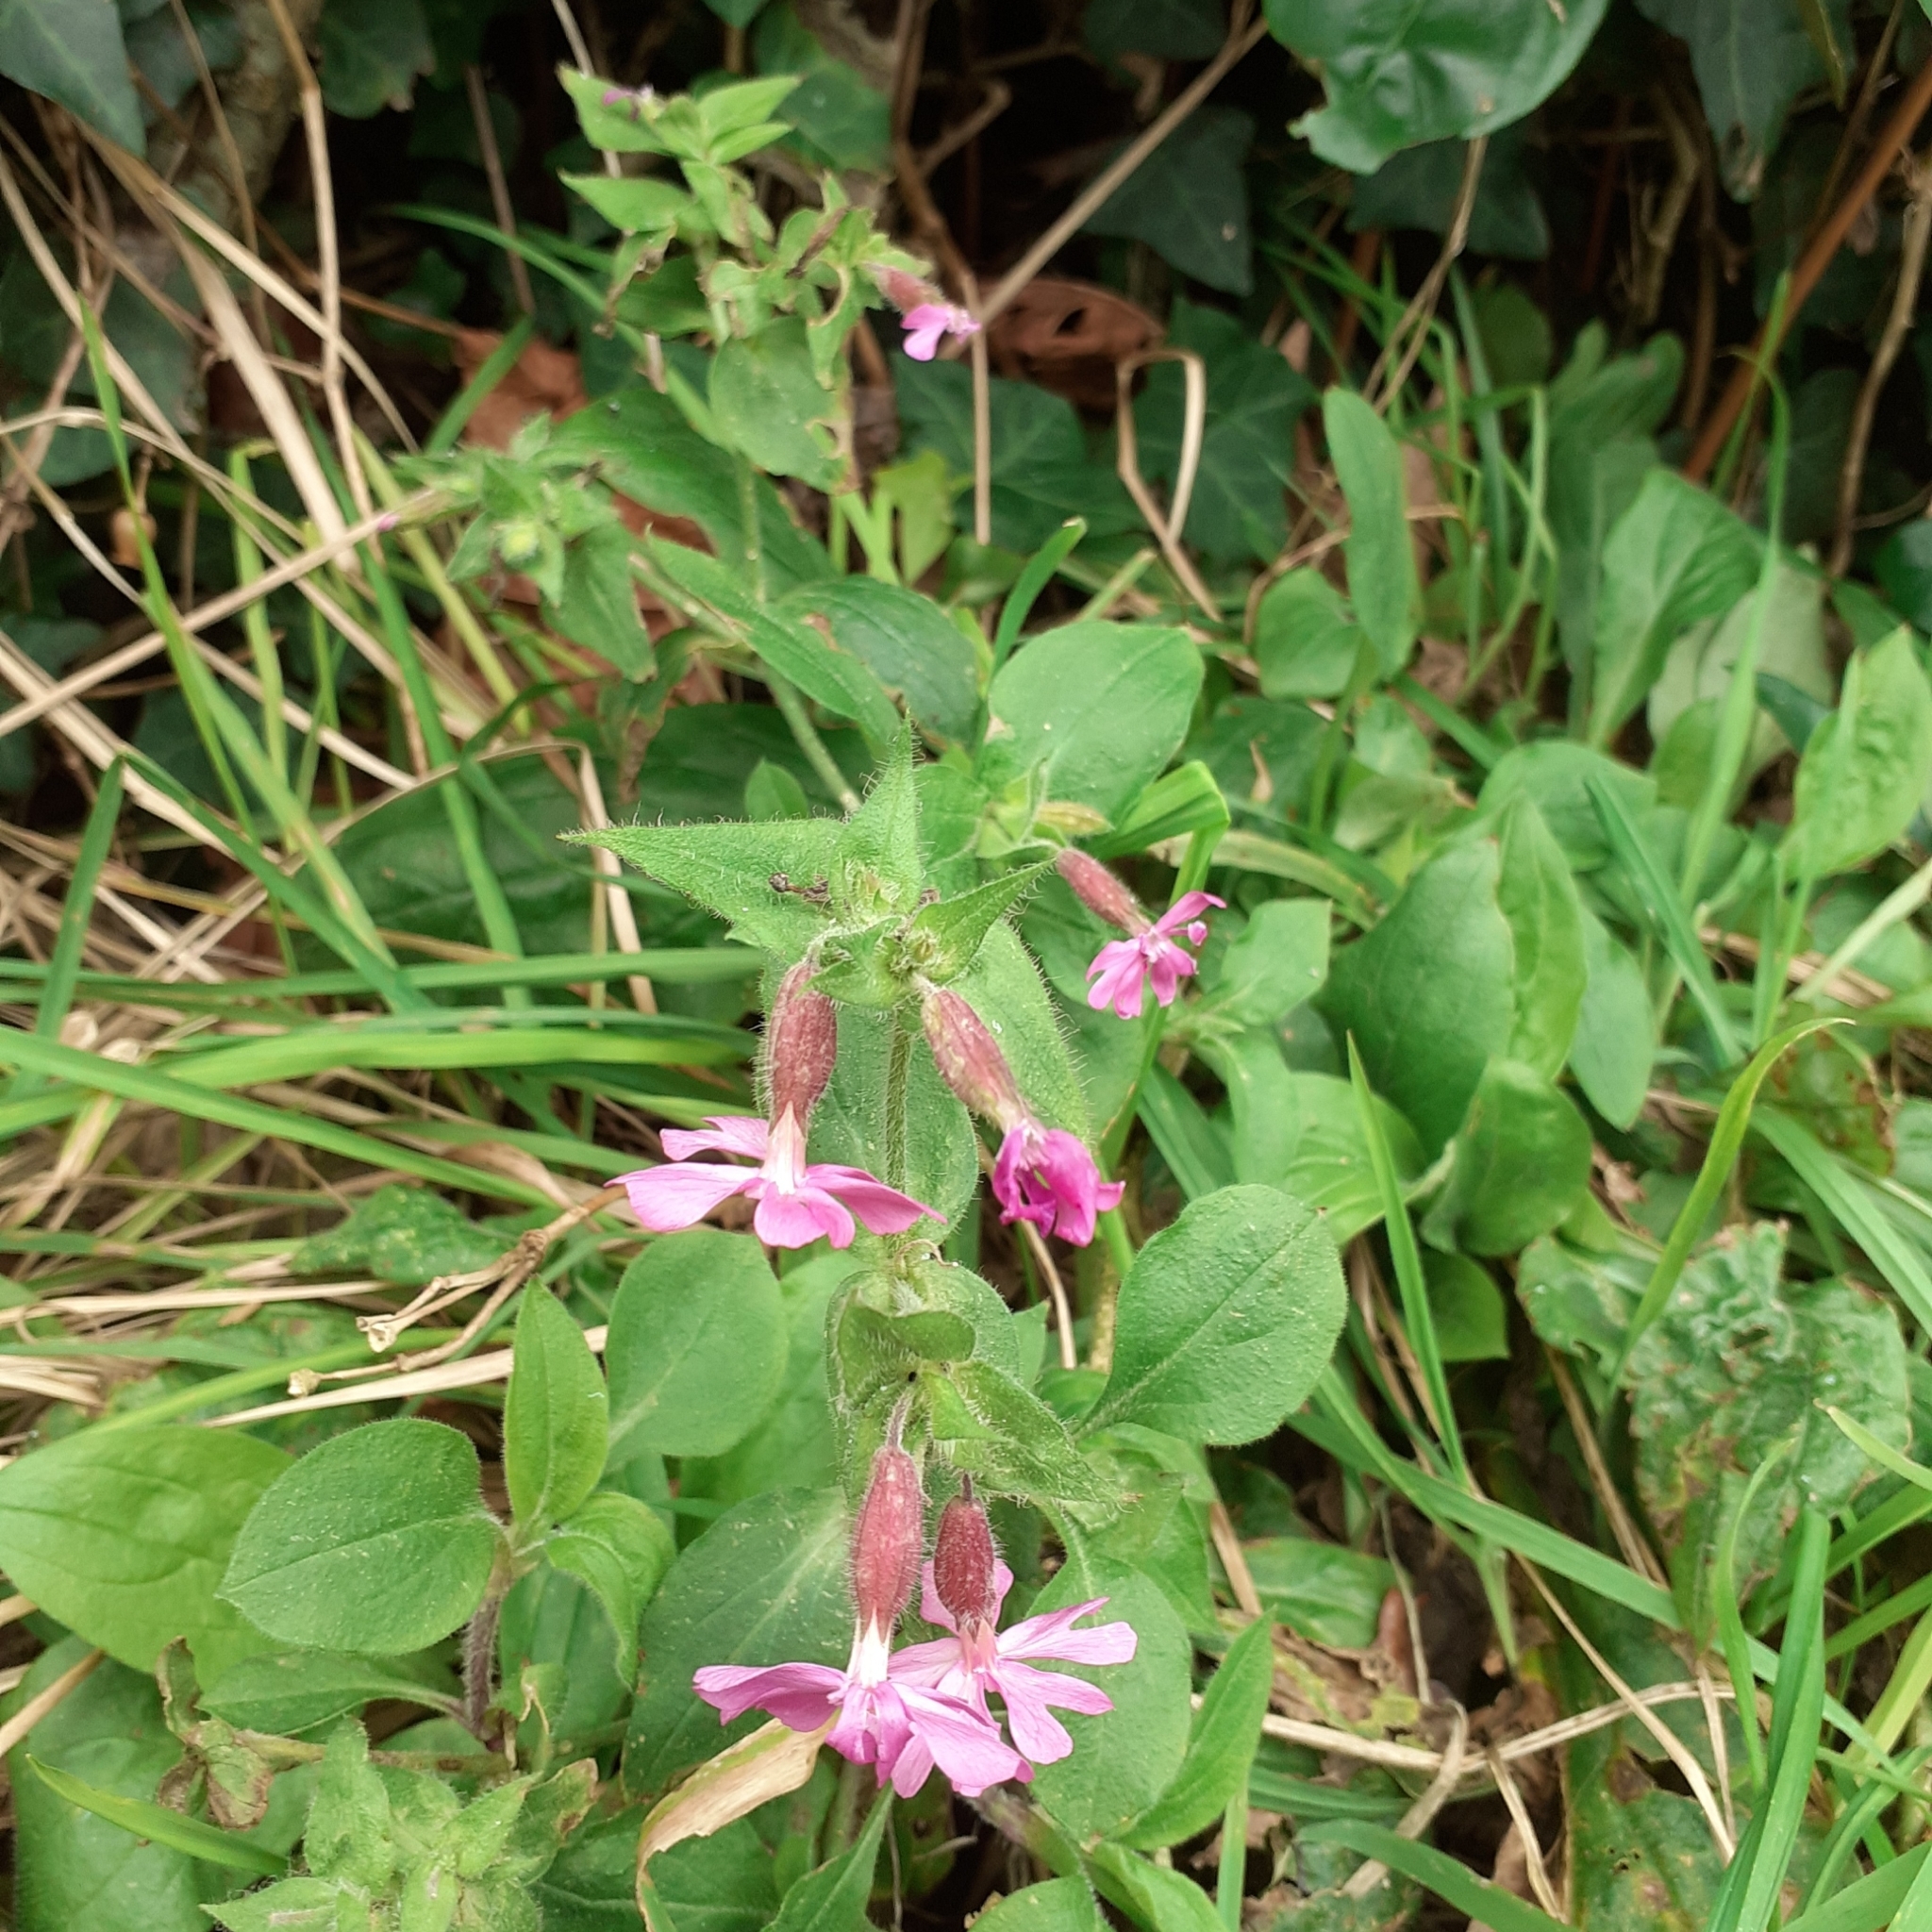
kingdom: Plantae
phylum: Tracheophyta
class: Magnoliopsida
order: Caryophyllales
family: Caryophyllaceae
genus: Silene
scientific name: Silene dioica
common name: Red campion
